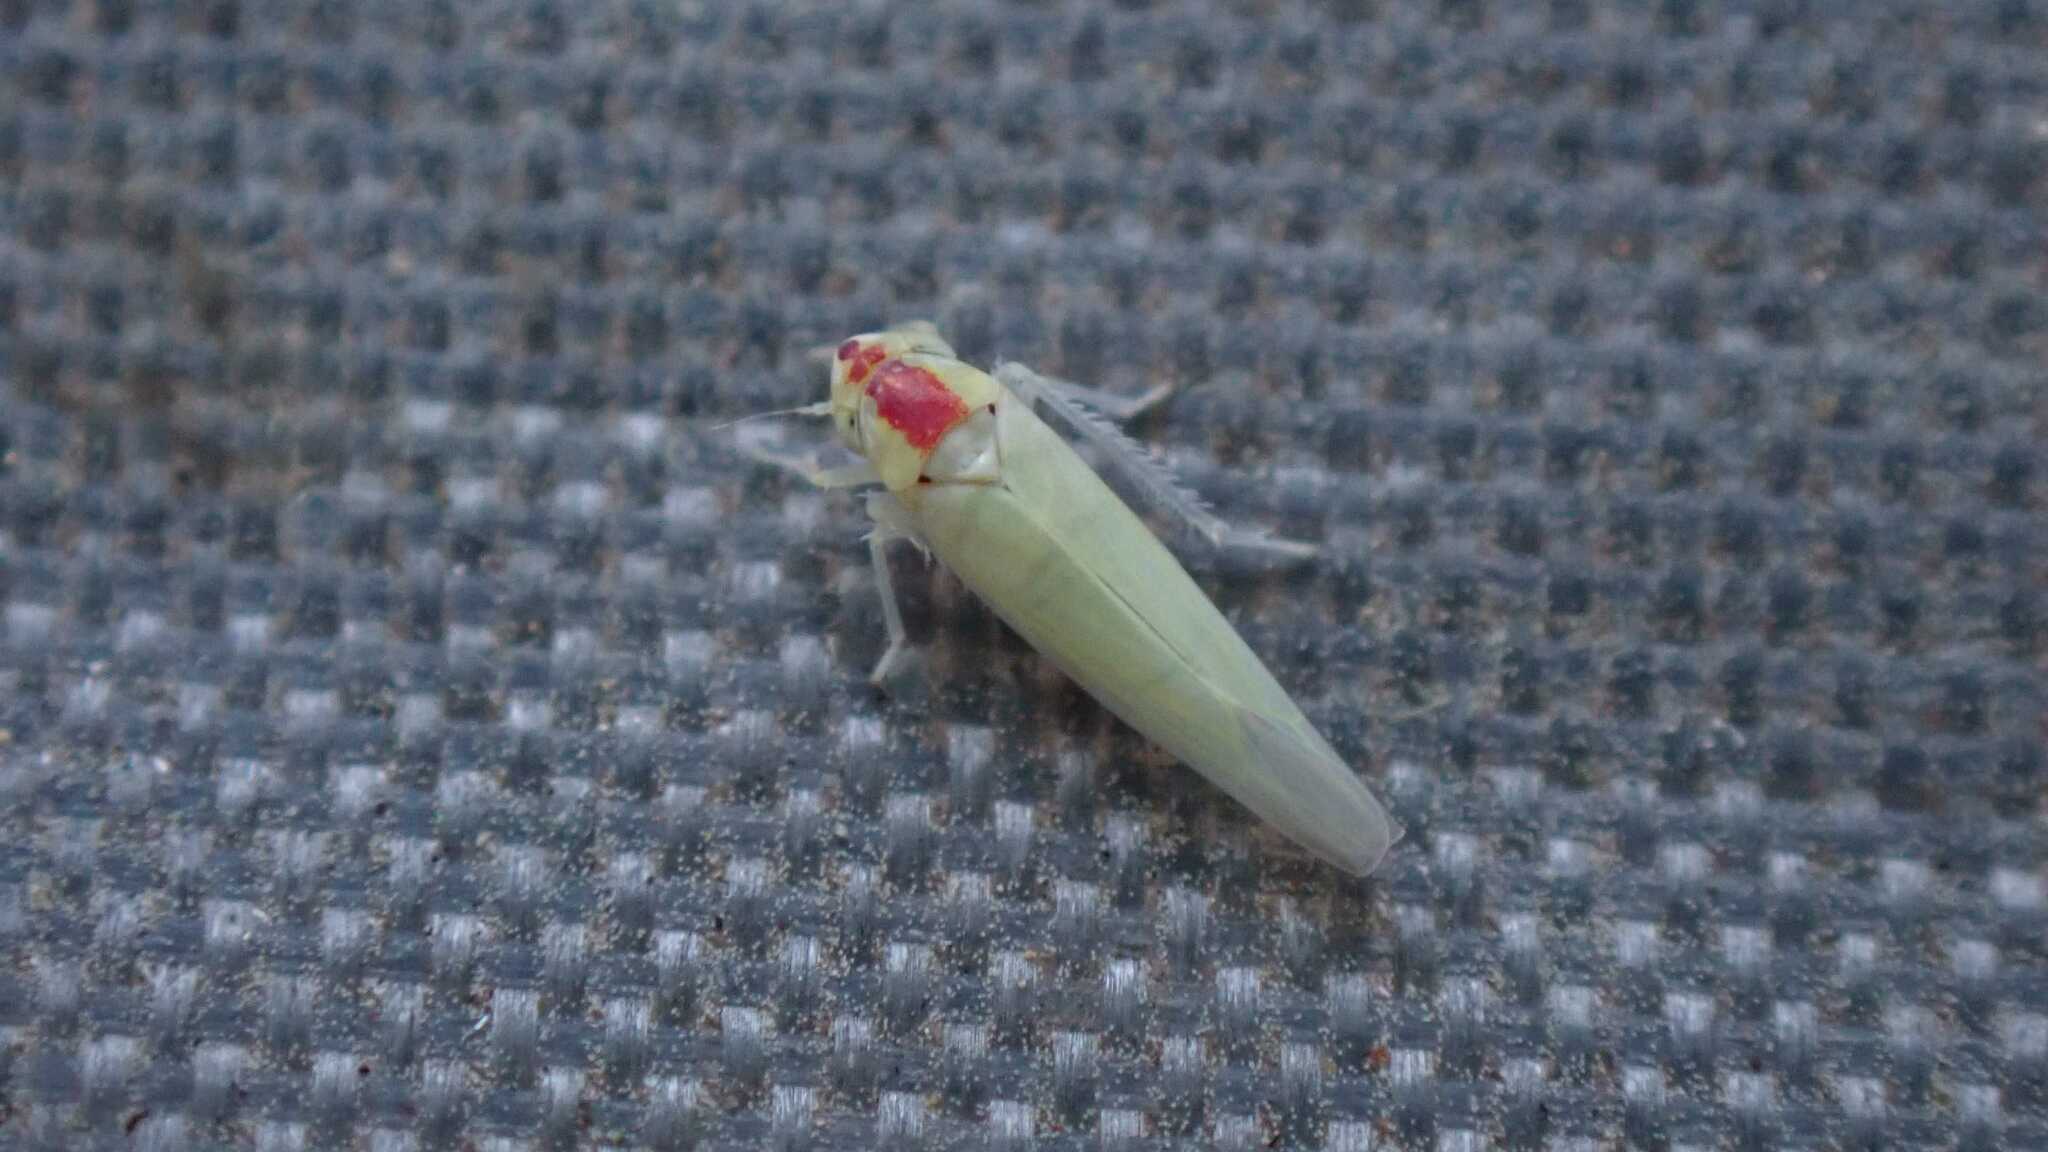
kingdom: Animalia
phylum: Arthropoda
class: Insecta
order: Hemiptera
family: Cicadellidae
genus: Zygina
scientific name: Zygina nivea
